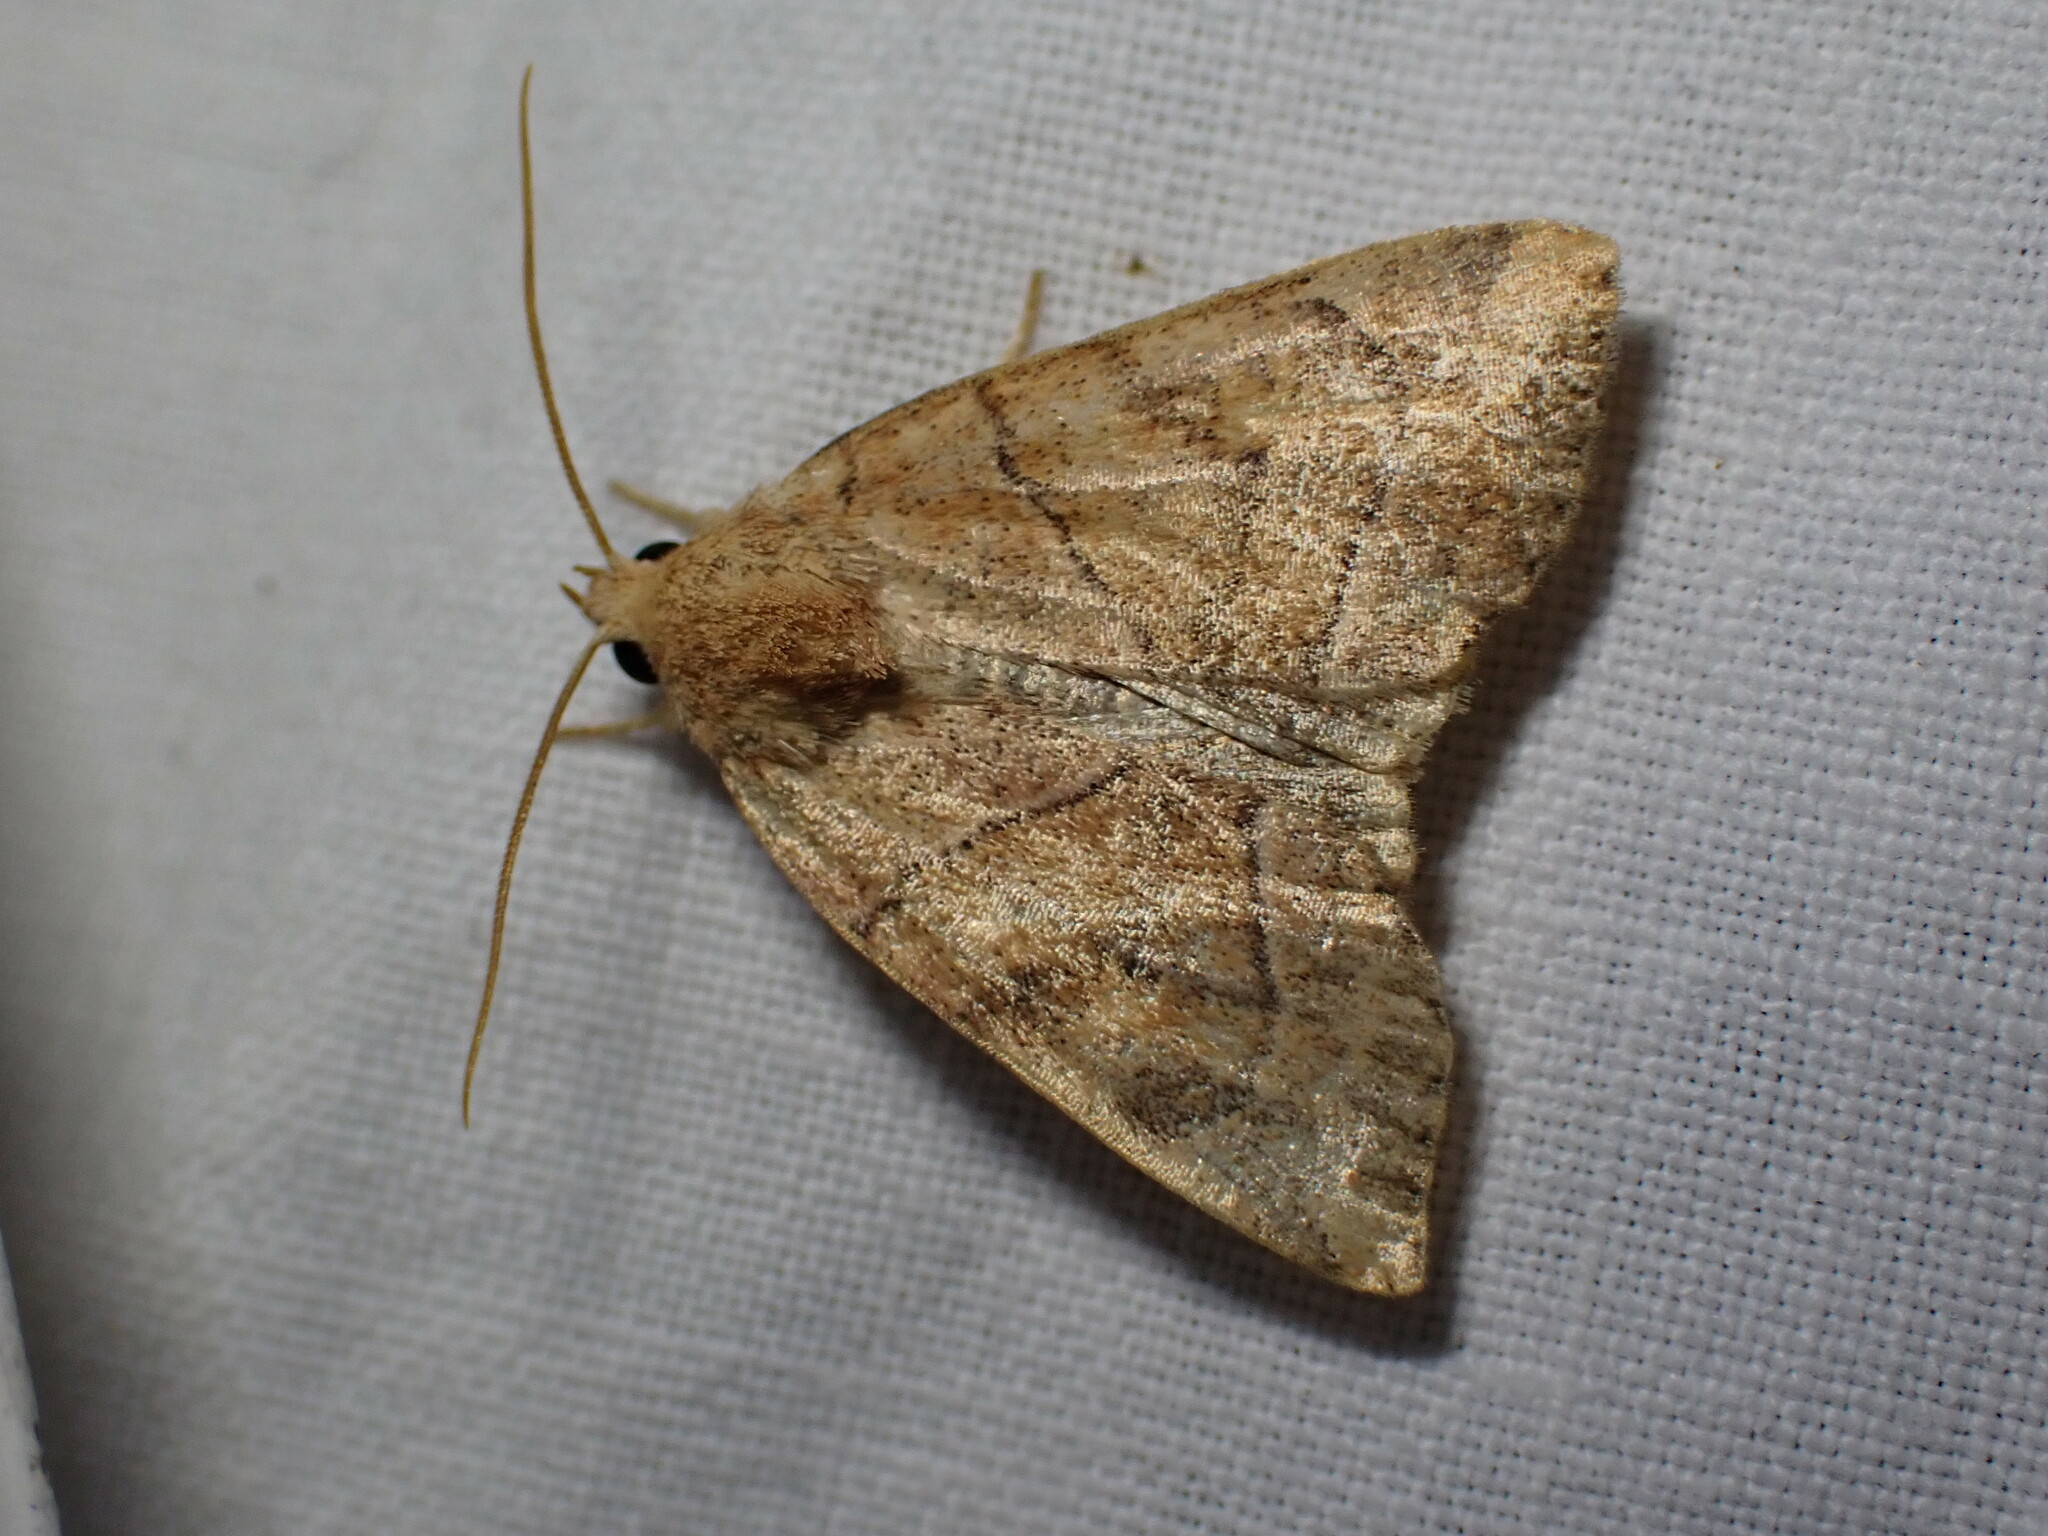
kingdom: Animalia
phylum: Arthropoda
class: Insecta
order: Lepidoptera
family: Noctuidae
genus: Cosmia
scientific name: Cosmia trapezina
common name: Dun-bar
